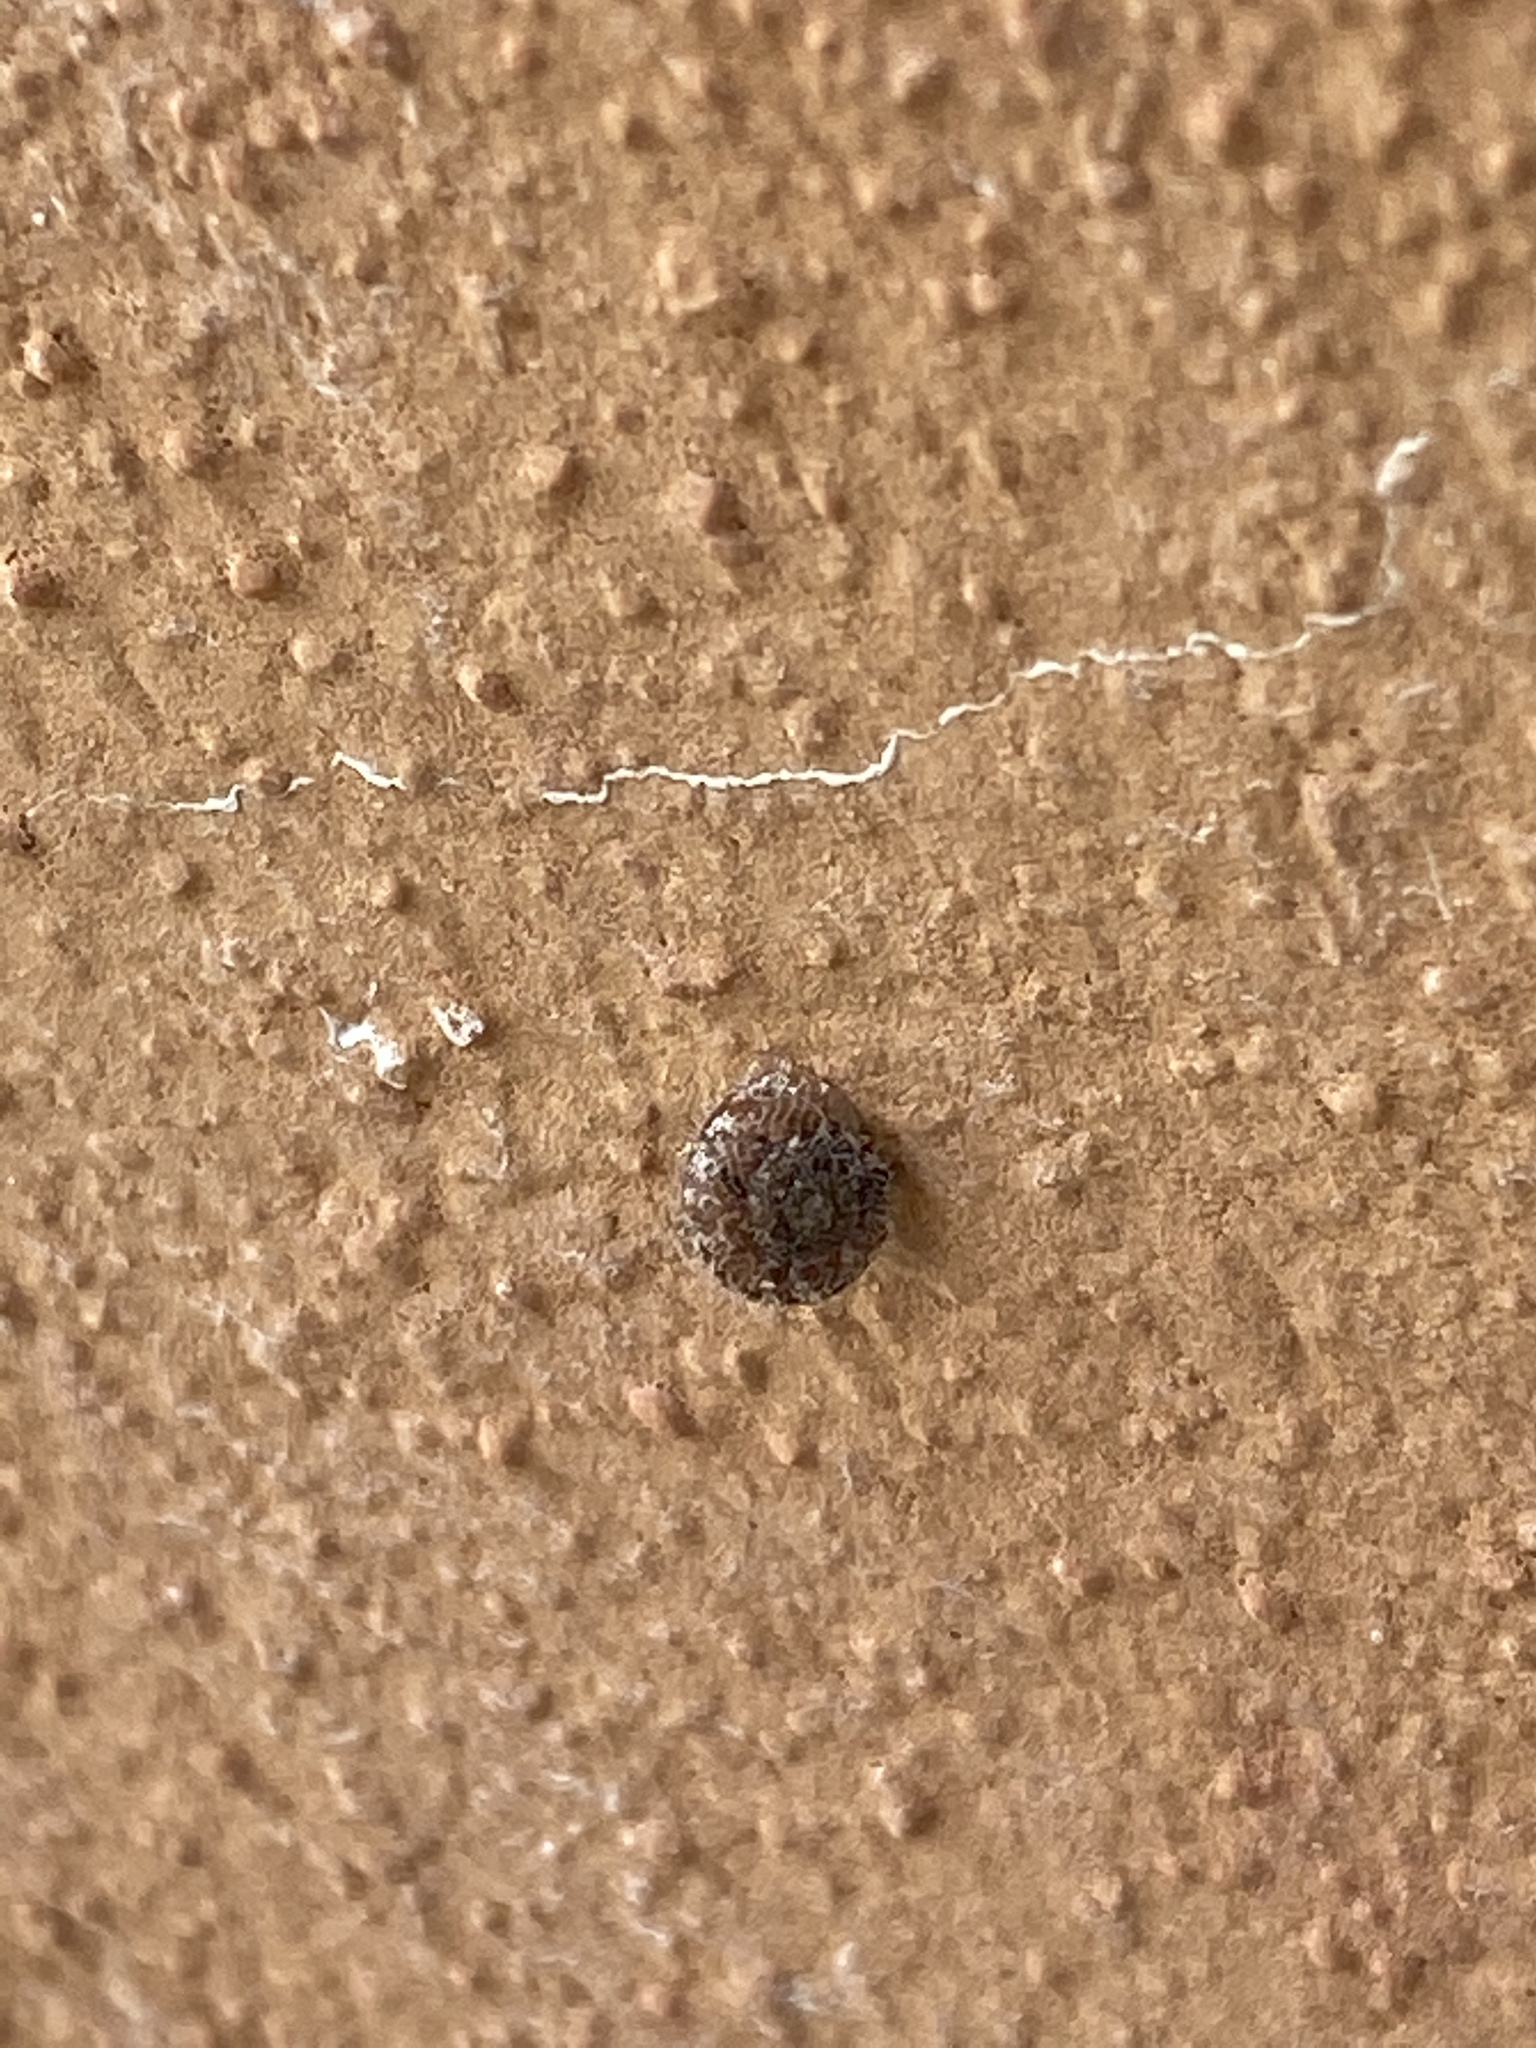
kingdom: Animalia
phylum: Mollusca
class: Gastropoda
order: Stylommatophora
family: Geomitridae
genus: Xerotricha
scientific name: Xerotricha conspurcata
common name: Snail
